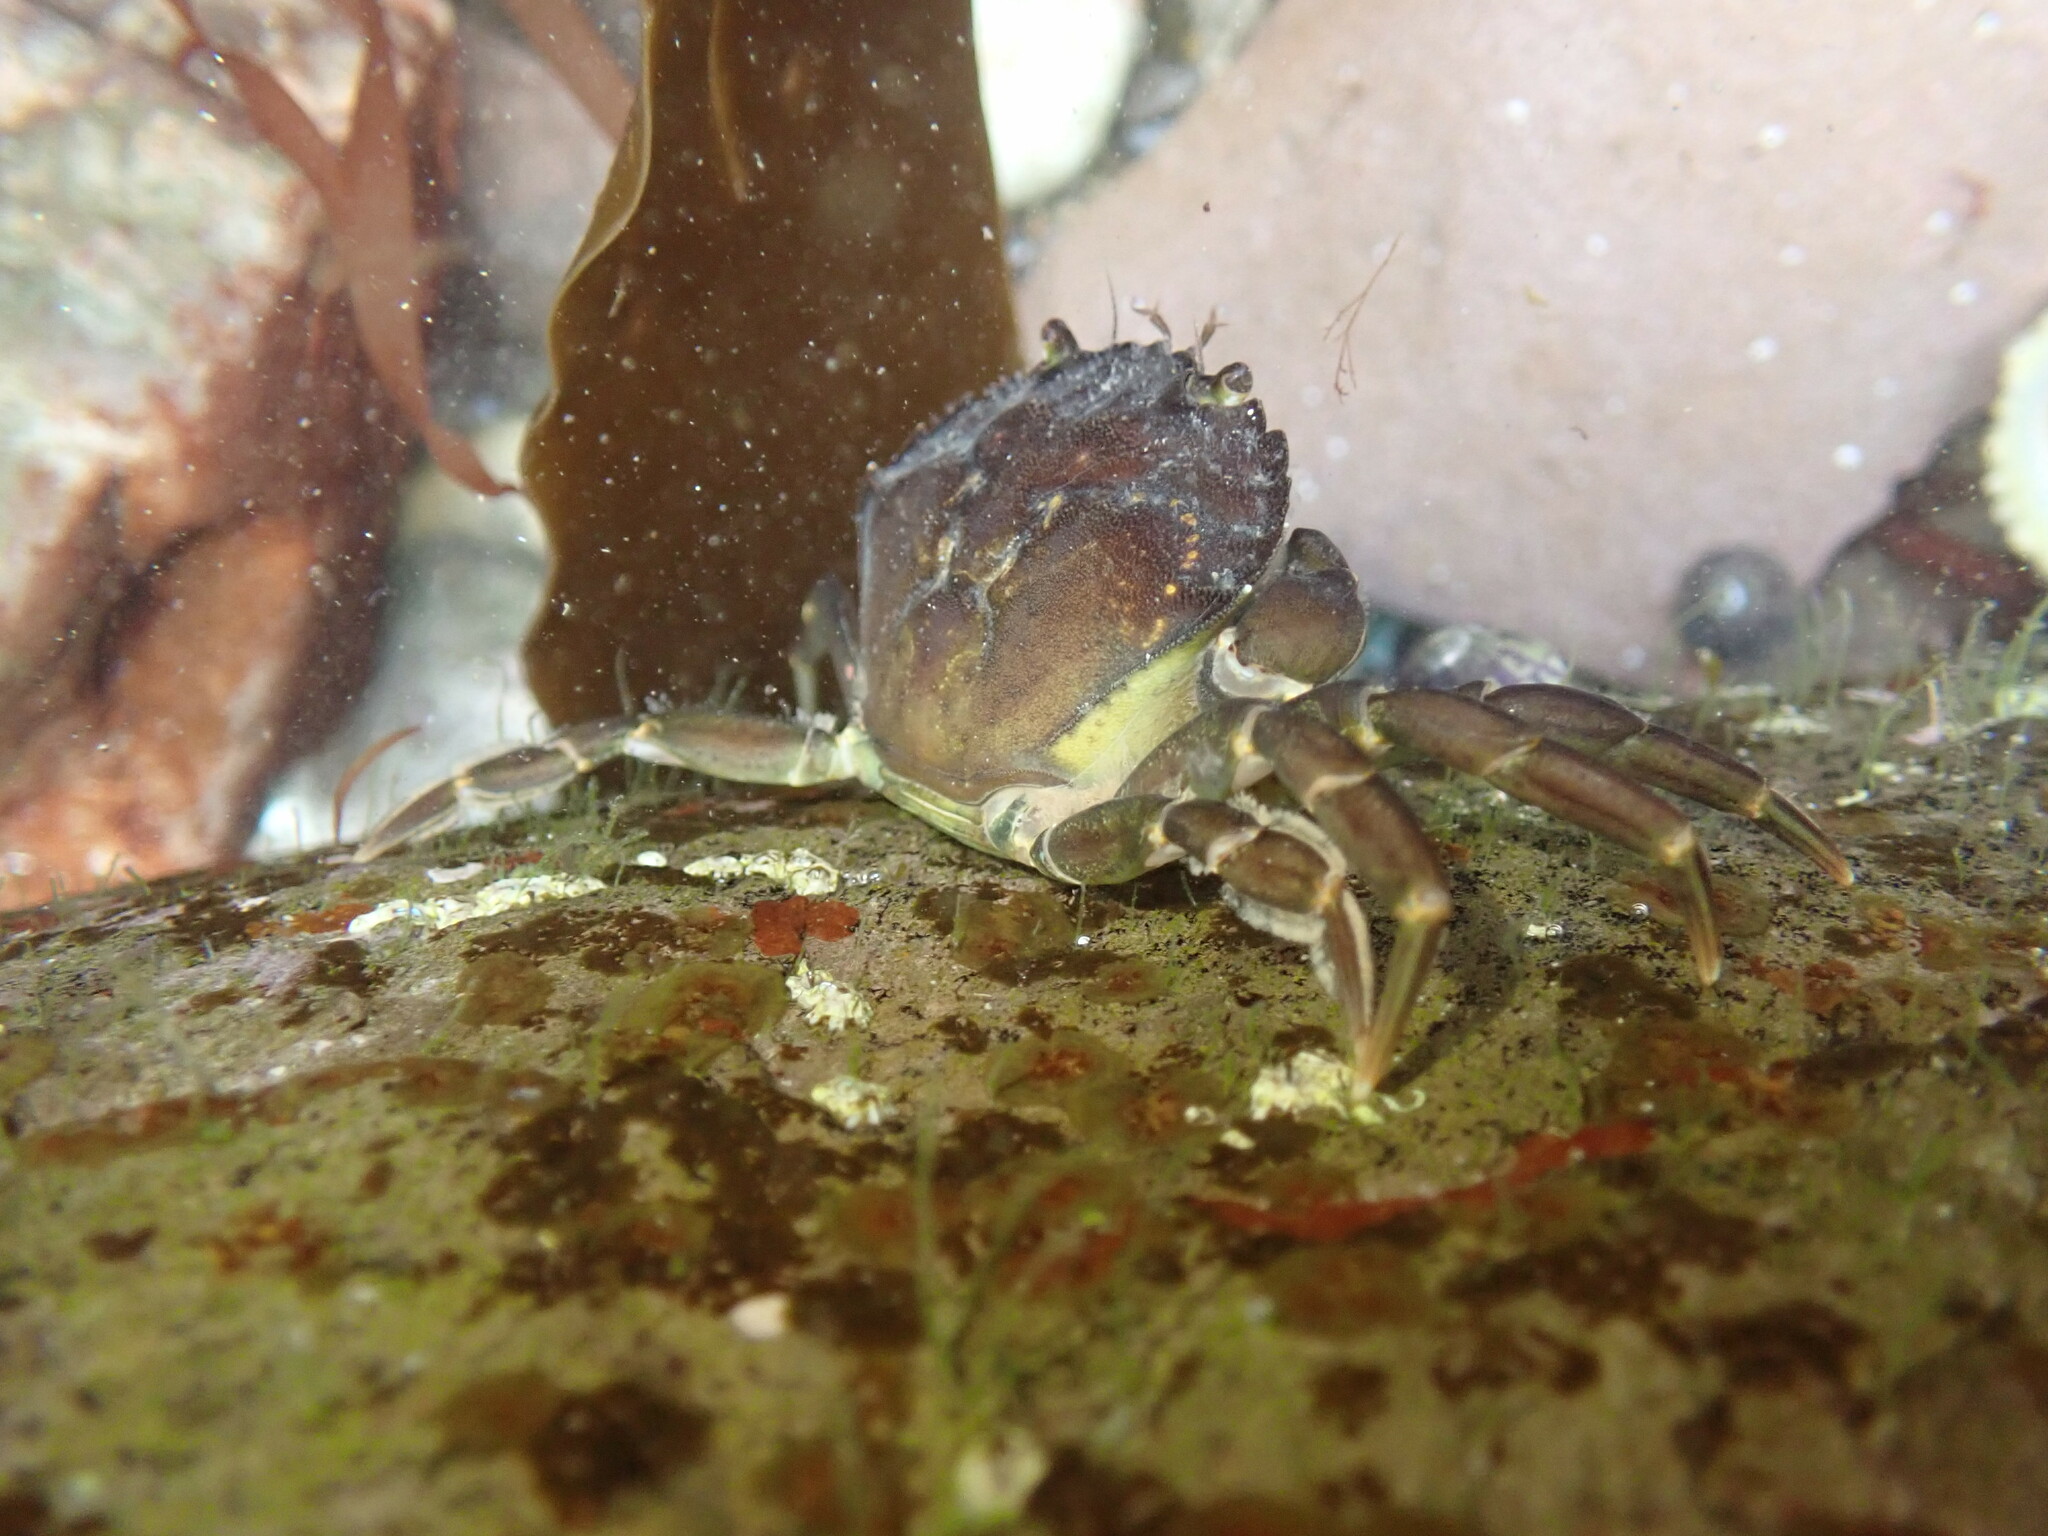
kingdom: Animalia
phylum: Arthropoda
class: Malacostraca
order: Decapoda
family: Carcinidae
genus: Carcinus
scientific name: Carcinus maenas
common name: European green crab
